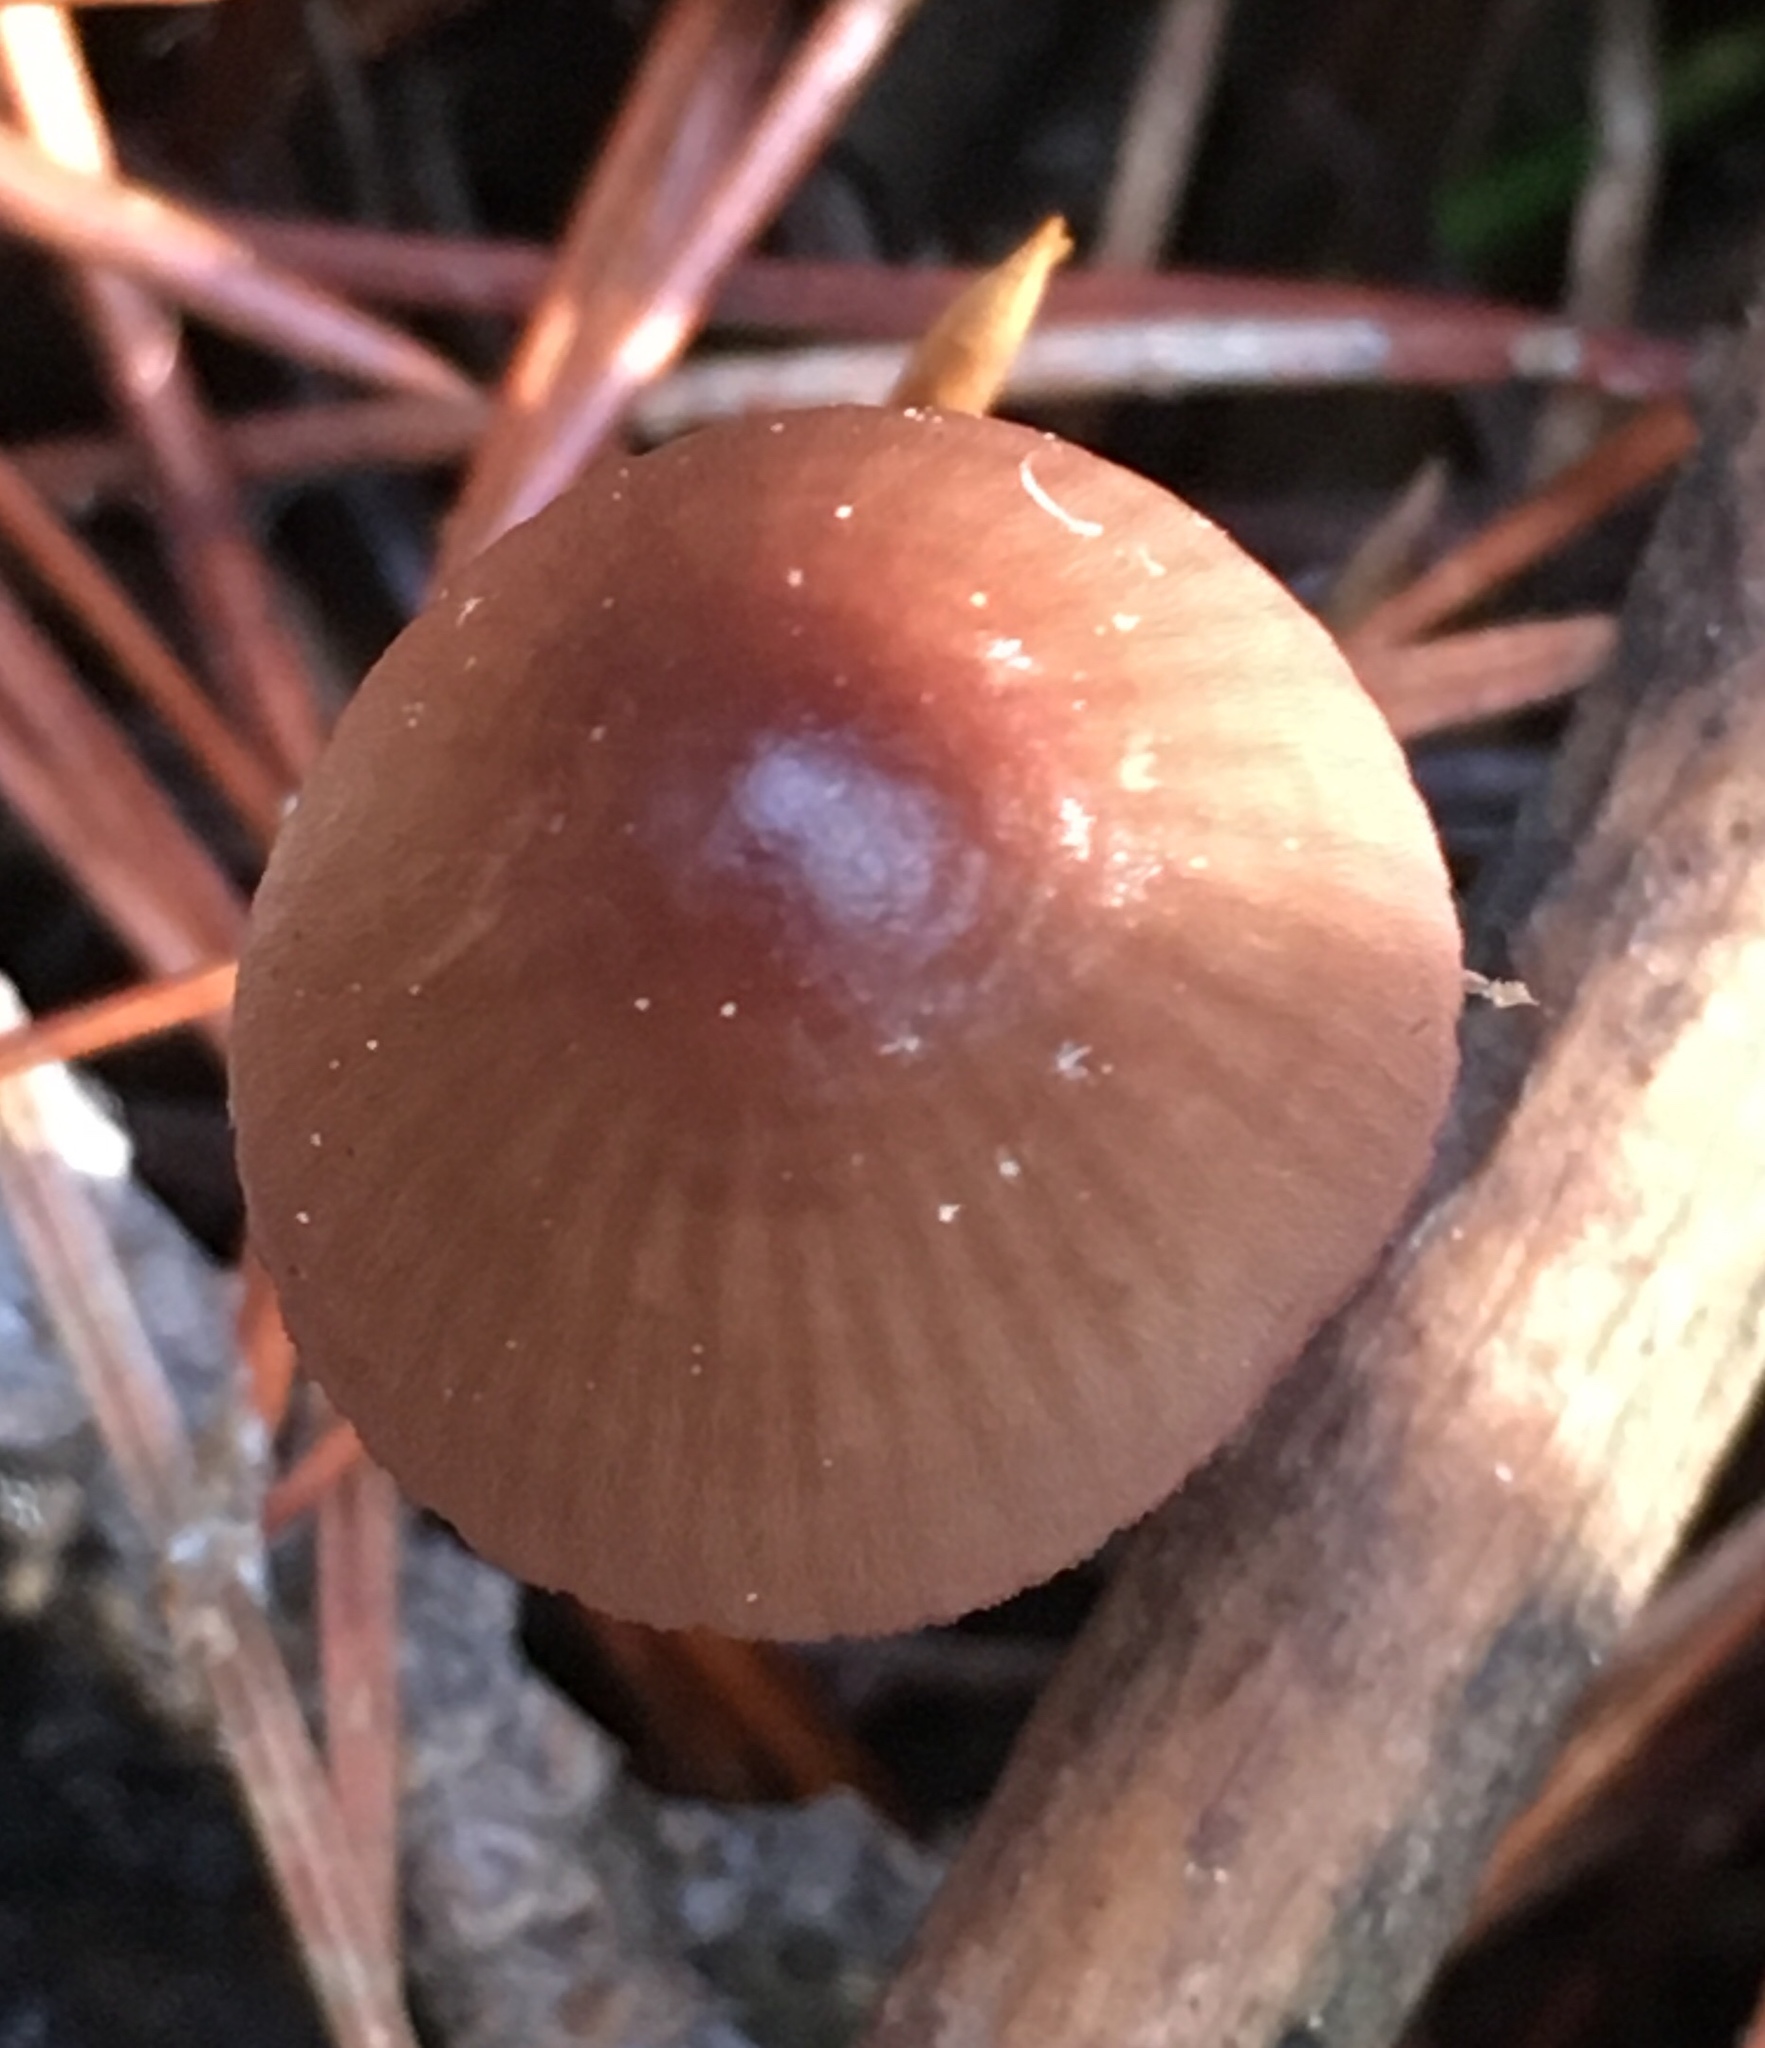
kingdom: Fungi
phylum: Basidiomycota
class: Agaricomycetes
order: Agaricales
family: Mycenaceae
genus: Mycena
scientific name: Mycena purpureofusca
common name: Purple edge bonnet
